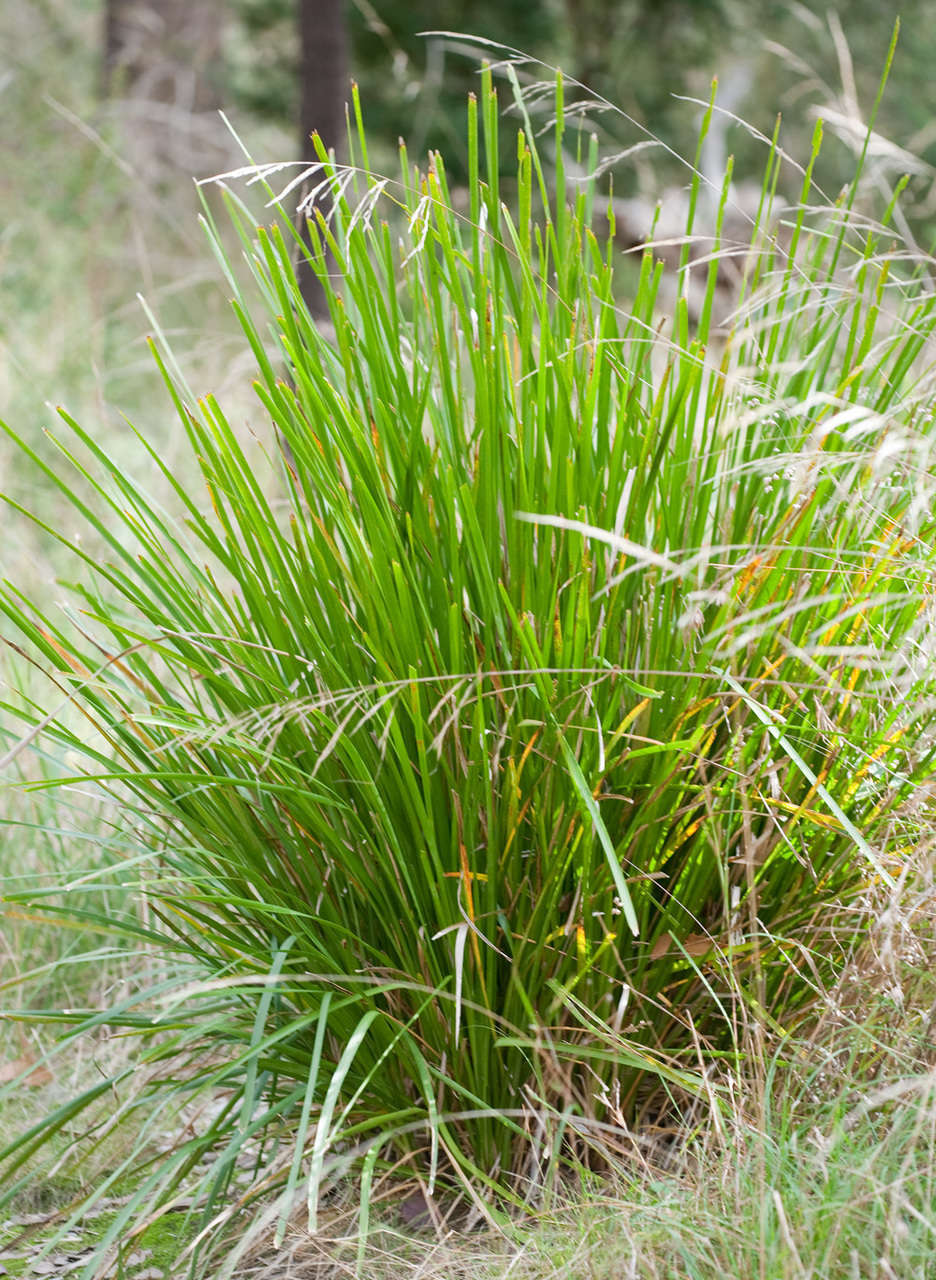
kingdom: Plantae
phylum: Tracheophyta
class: Liliopsida
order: Asparagales
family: Asparagaceae
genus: Lomandra
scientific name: Lomandra longifolia
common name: Longleaf mat-rush
